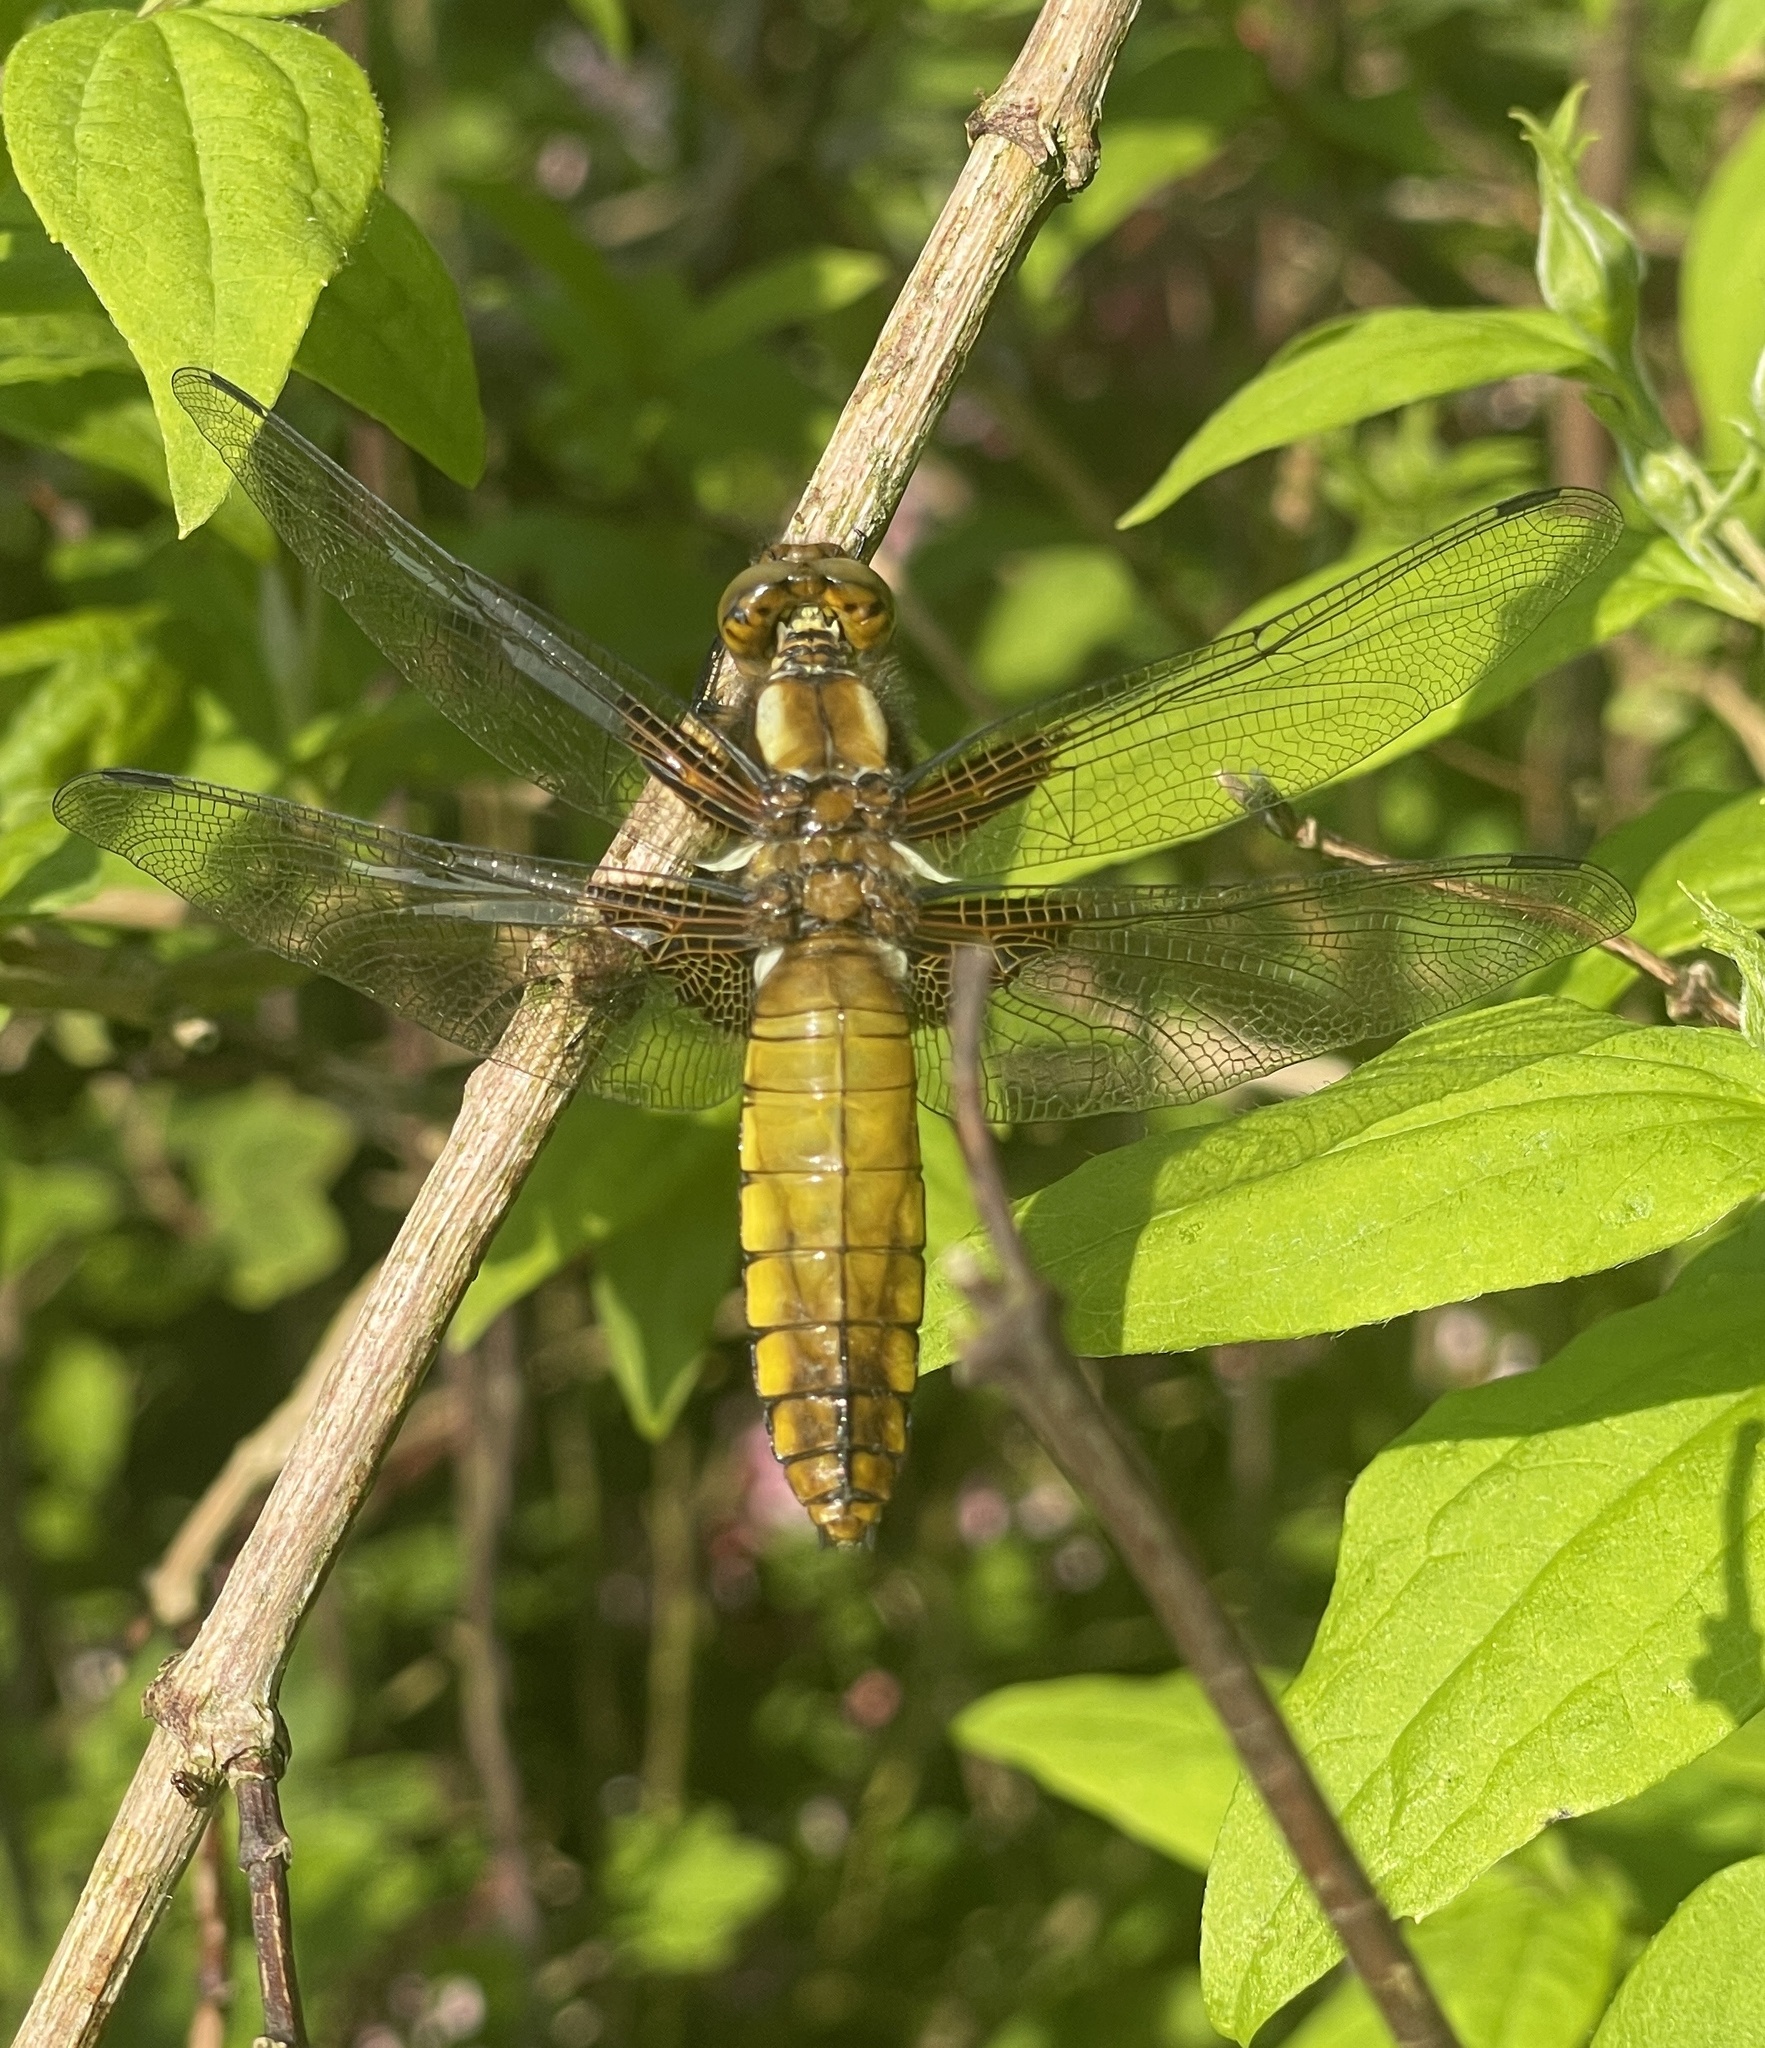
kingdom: Animalia
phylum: Arthropoda
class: Insecta
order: Odonata
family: Libellulidae
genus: Libellula
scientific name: Libellula depressa
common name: Broad-bodied chaser
